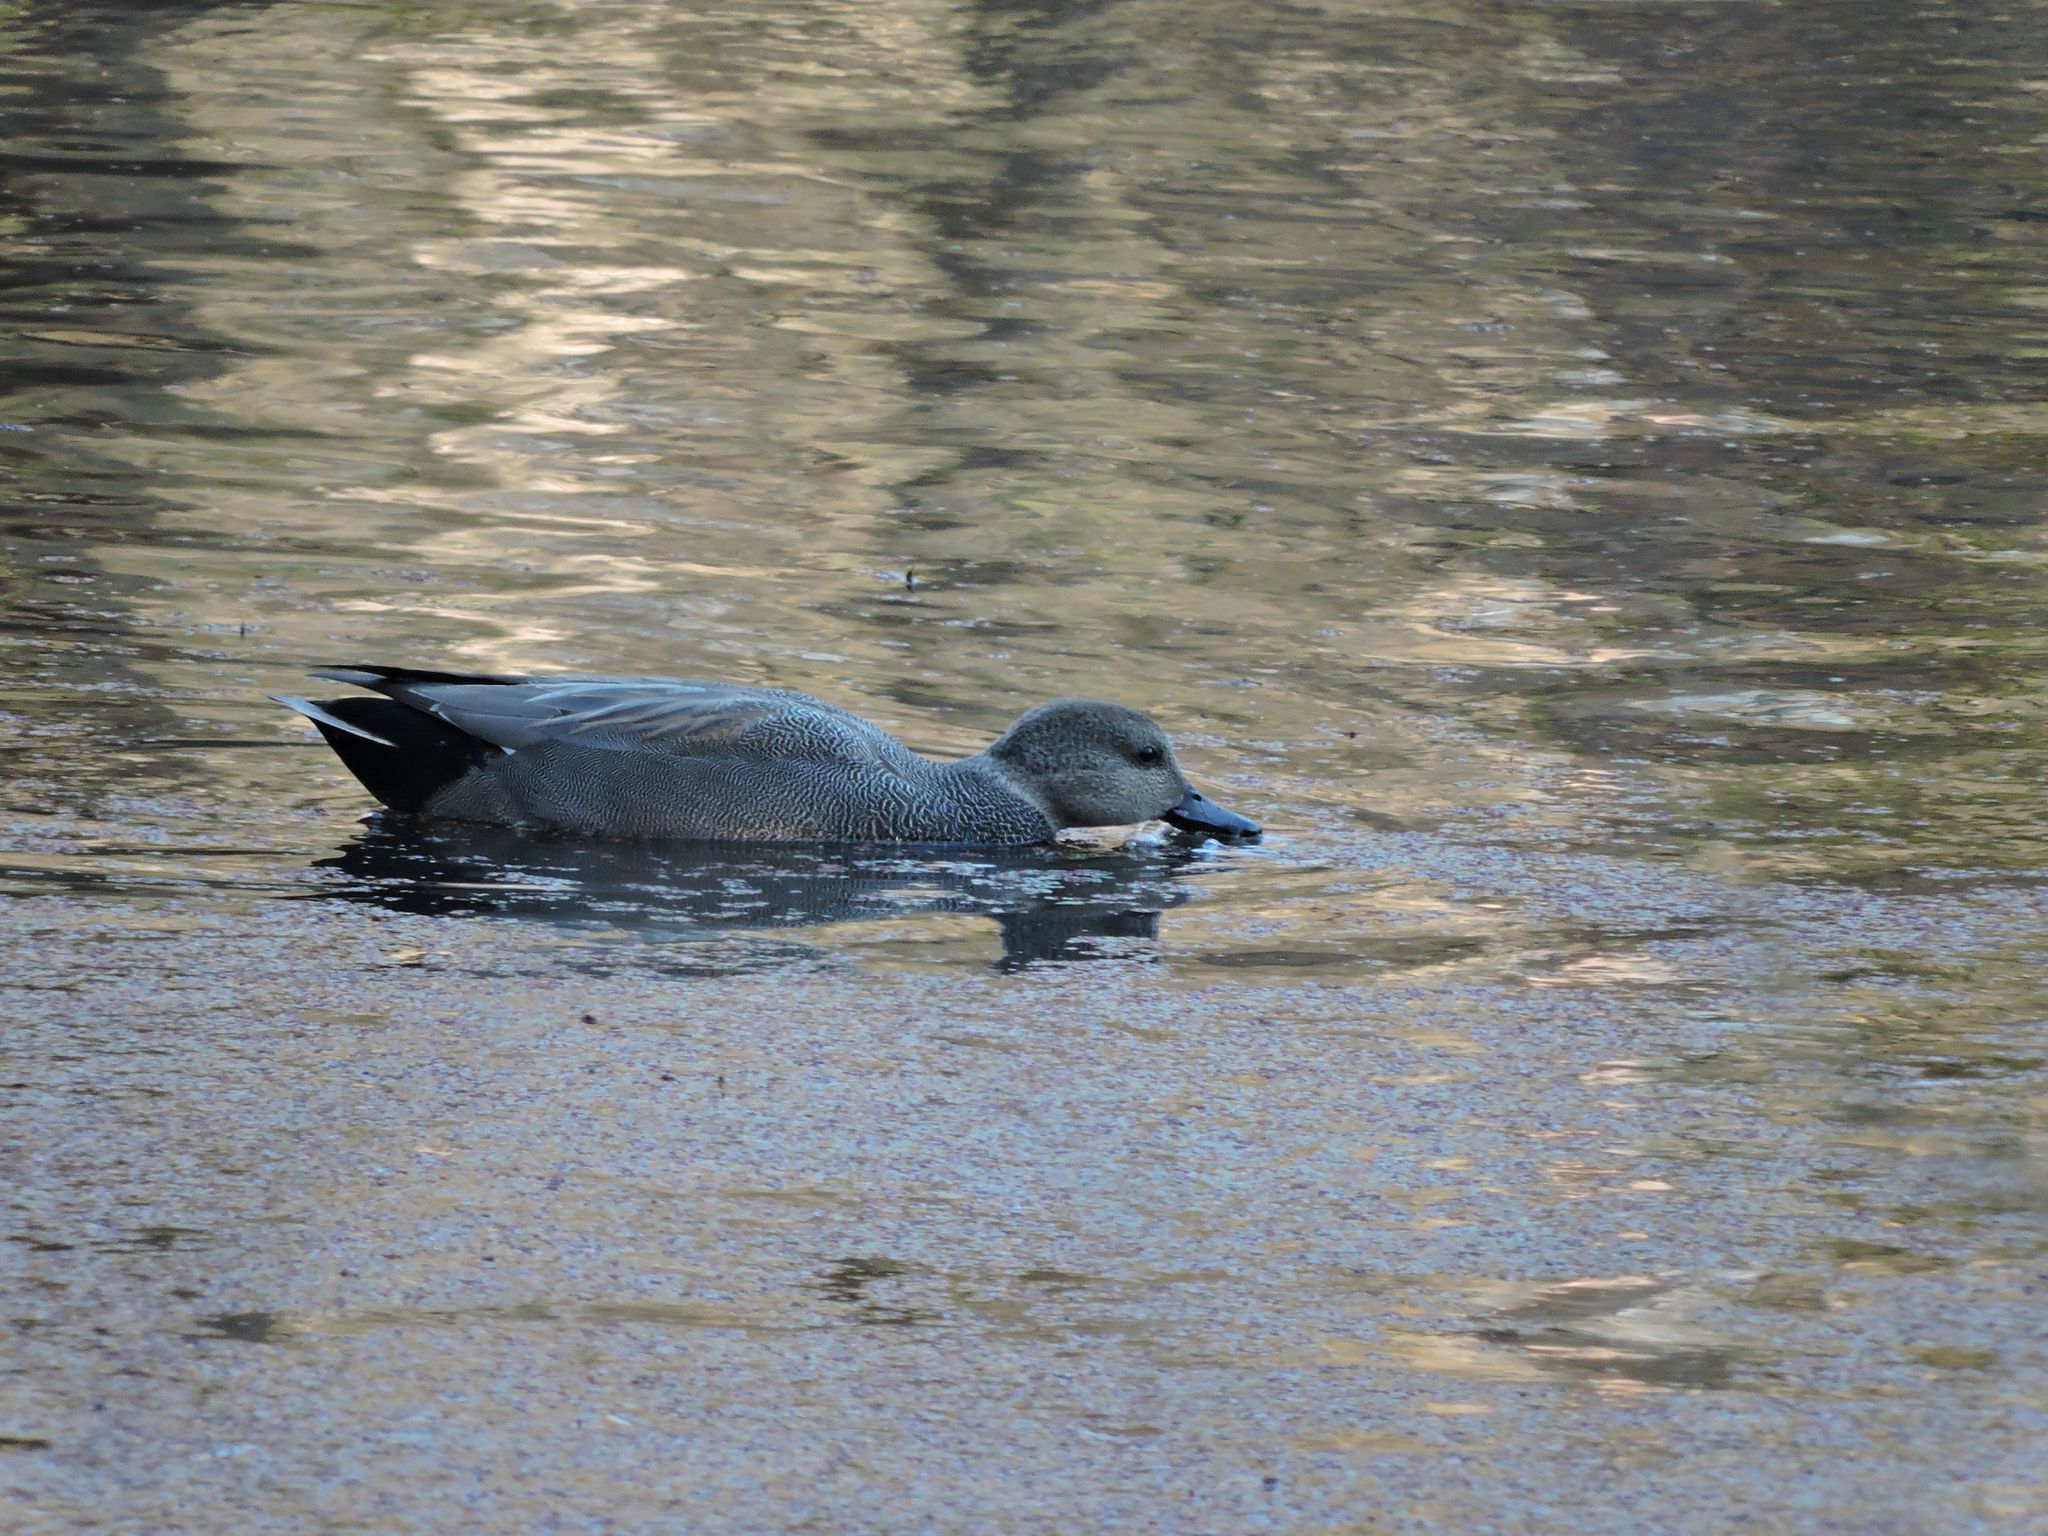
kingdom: Animalia
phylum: Chordata
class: Aves
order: Anseriformes
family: Anatidae
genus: Mareca
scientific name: Mareca strepera
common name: Gadwall
